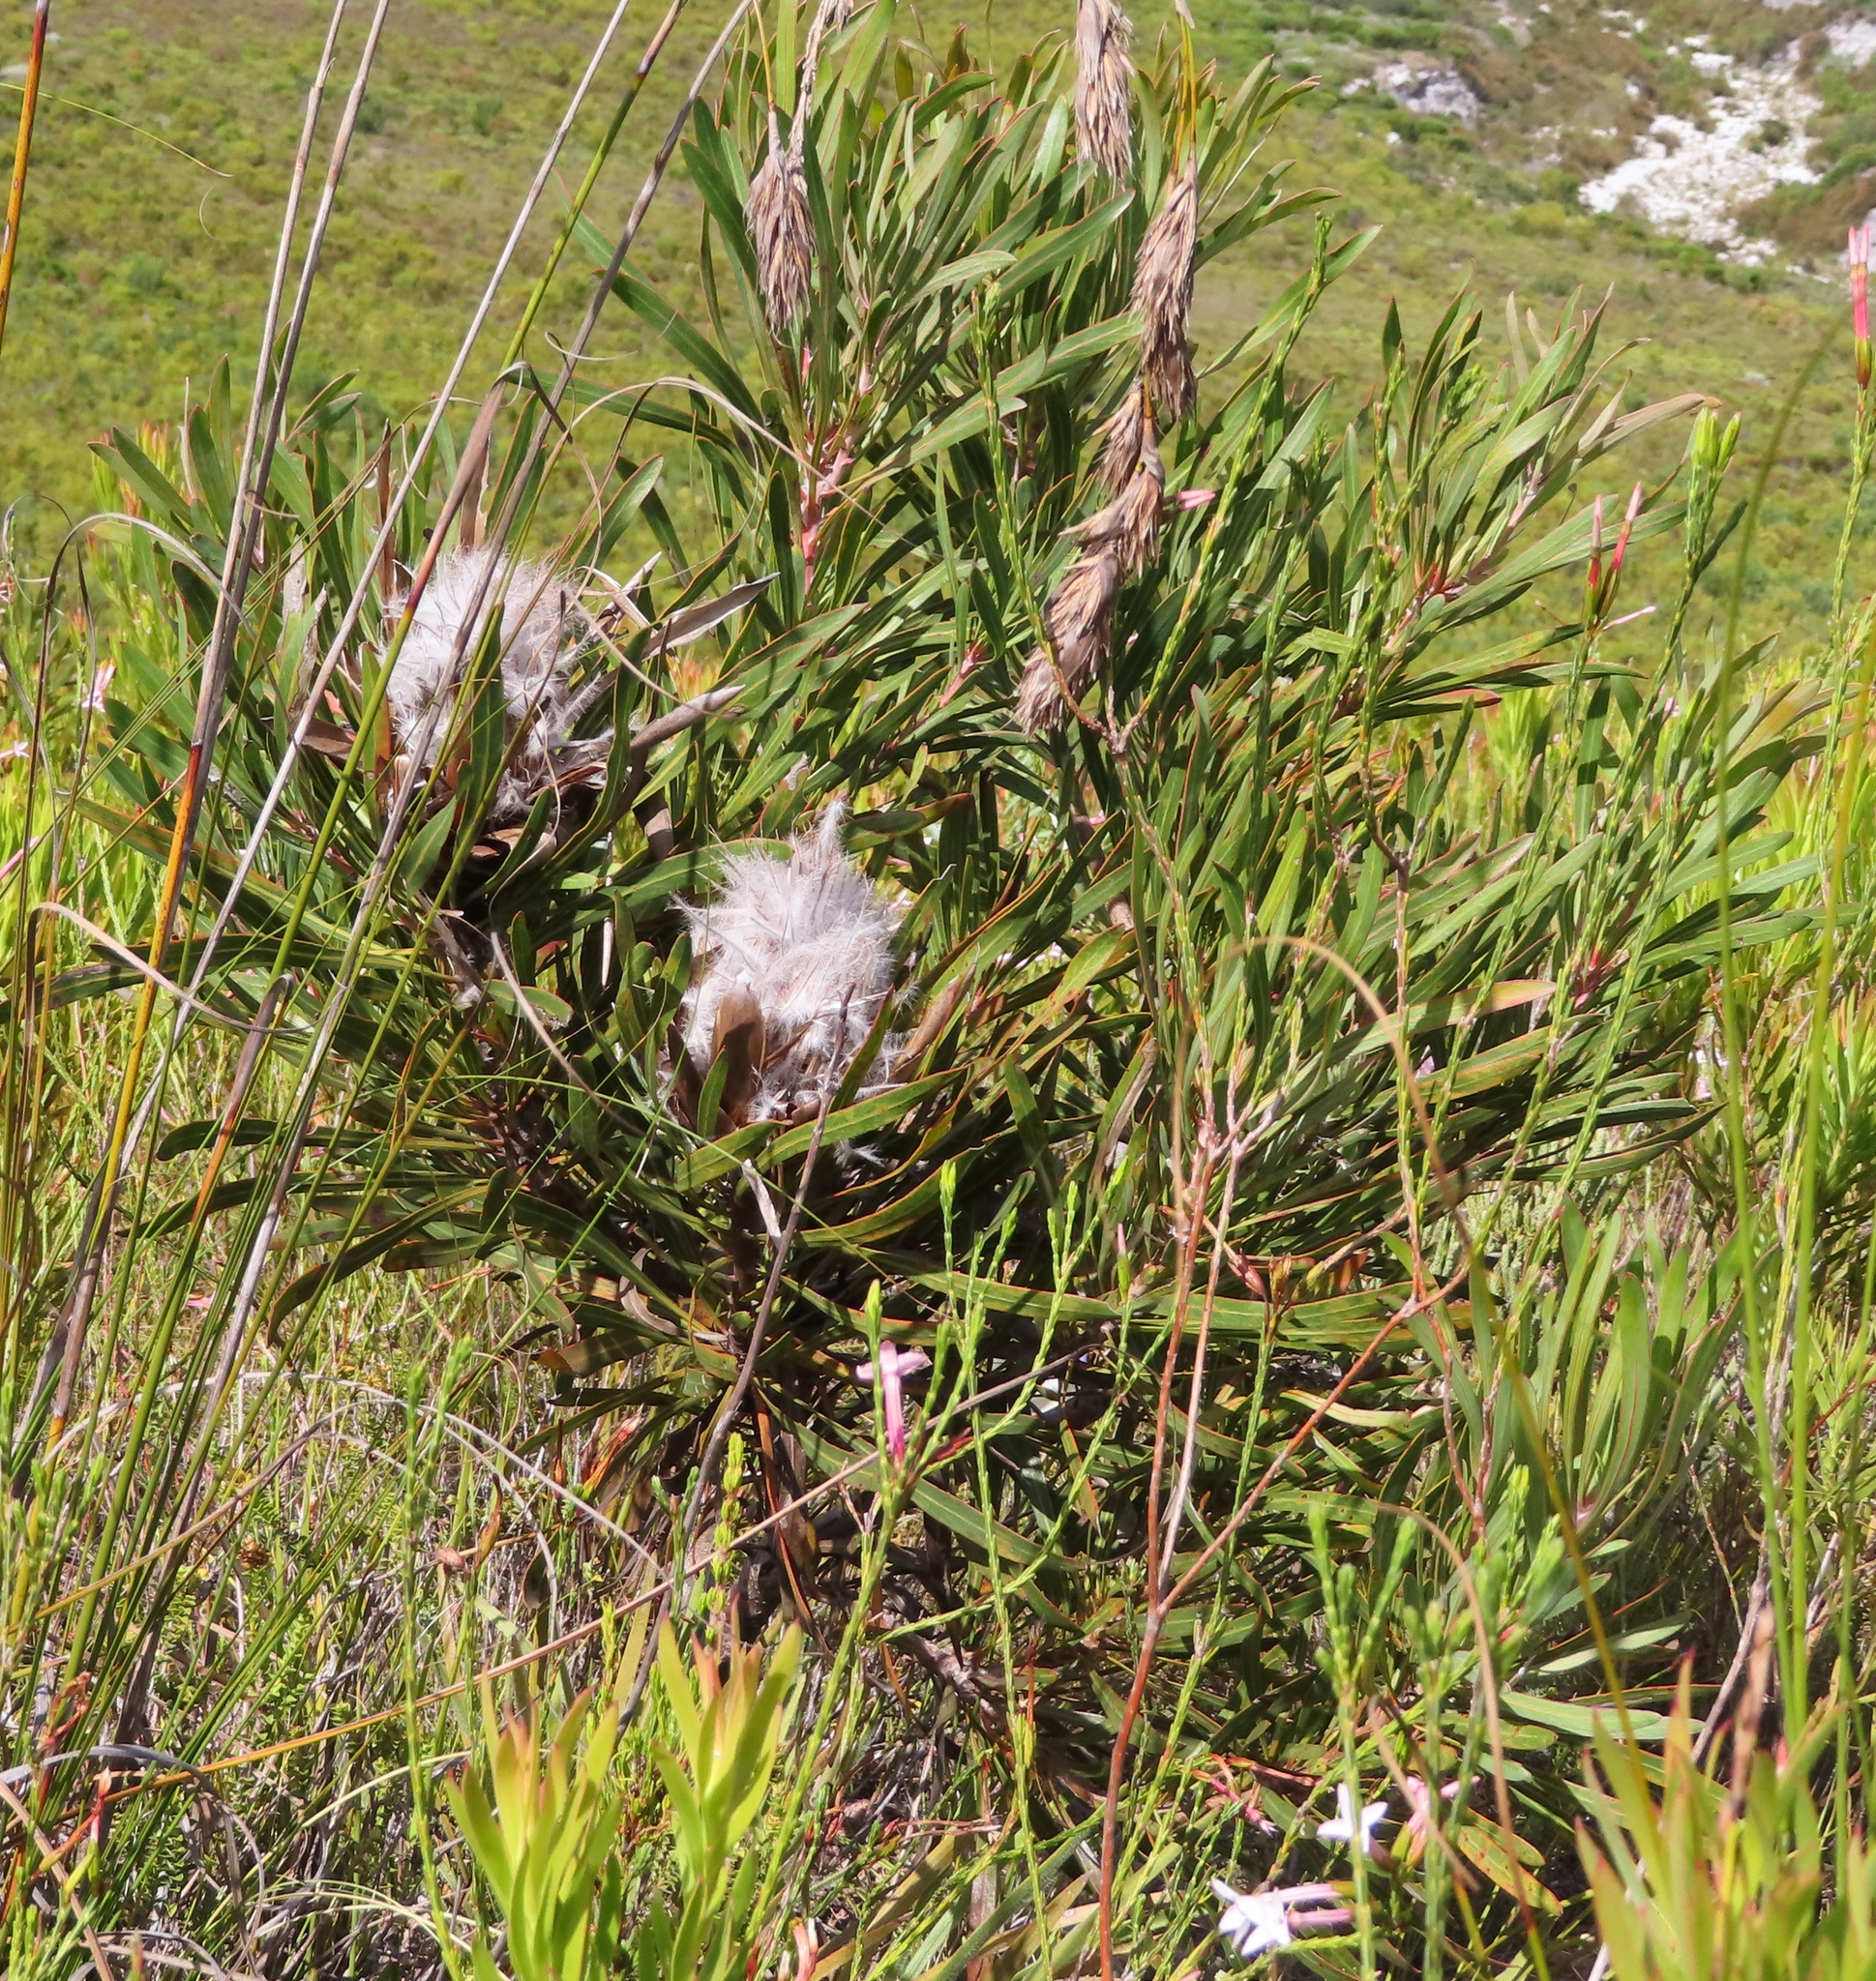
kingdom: Plantae
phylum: Tracheophyta
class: Magnoliopsida
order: Proteales
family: Proteaceae
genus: Protea
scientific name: Protea longifolia
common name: Long-leaf sugarbush
